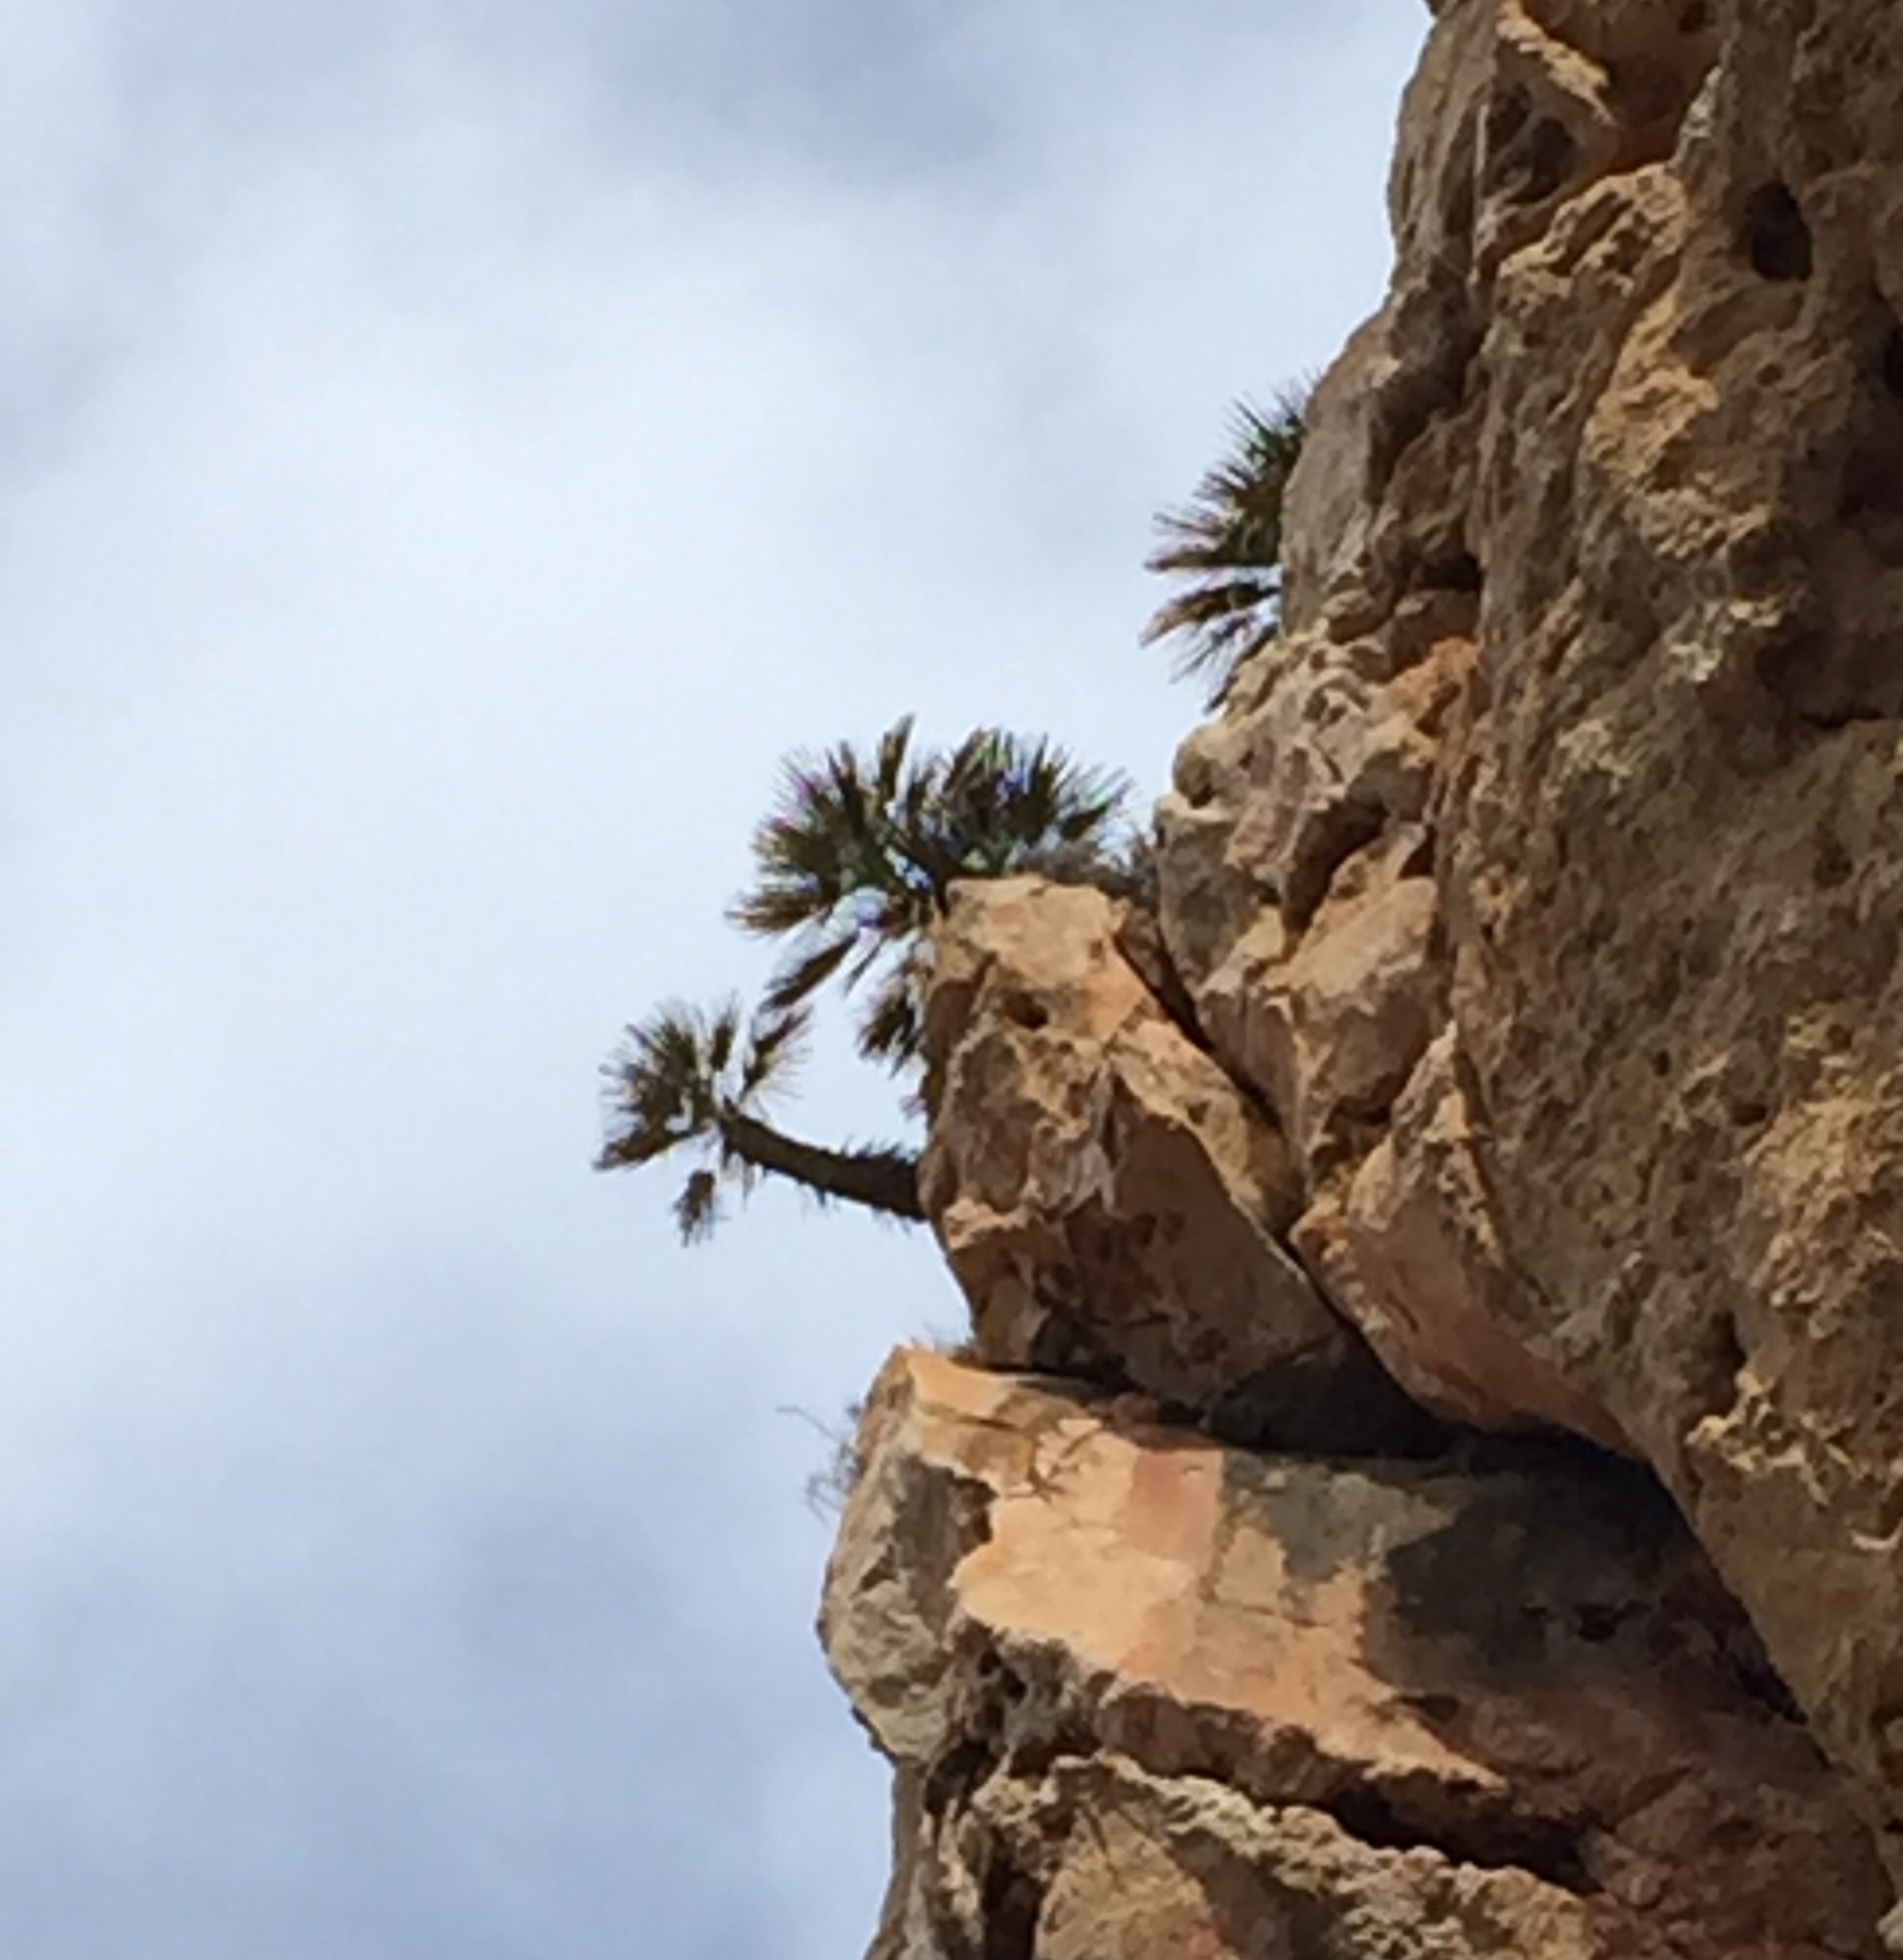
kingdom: Plantae
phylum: Tracheophyta
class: Liliopsida
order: Arecales
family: Arecaceae
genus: Chamaerops
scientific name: Chamaerops humilis
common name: Dwarf fan palm
